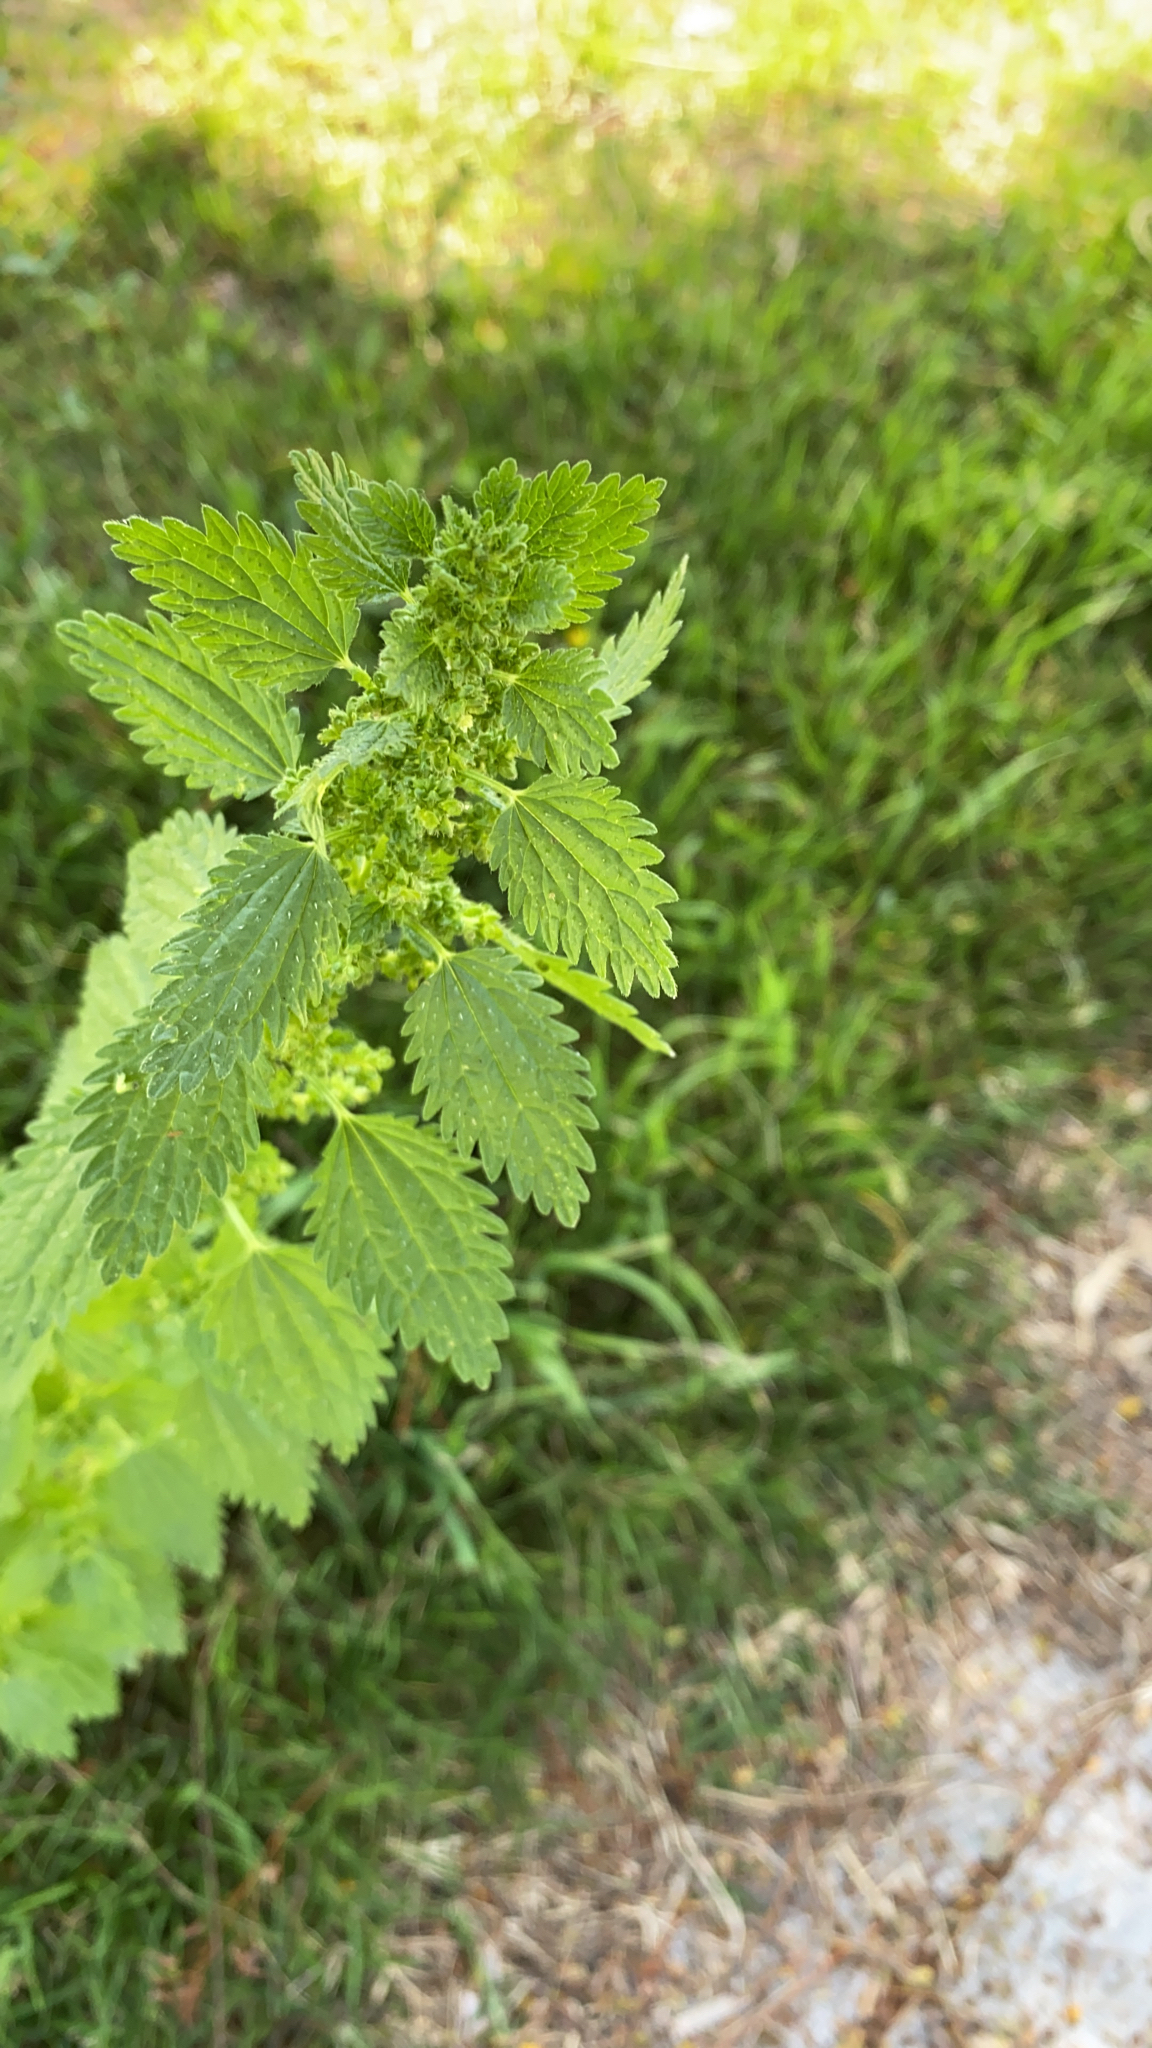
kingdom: Plantae
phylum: Tracheophyta
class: Magnoliopsida
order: Rosales
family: Urticaceae
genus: Urtica
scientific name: Urtica urens
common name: Dwarf nettle
